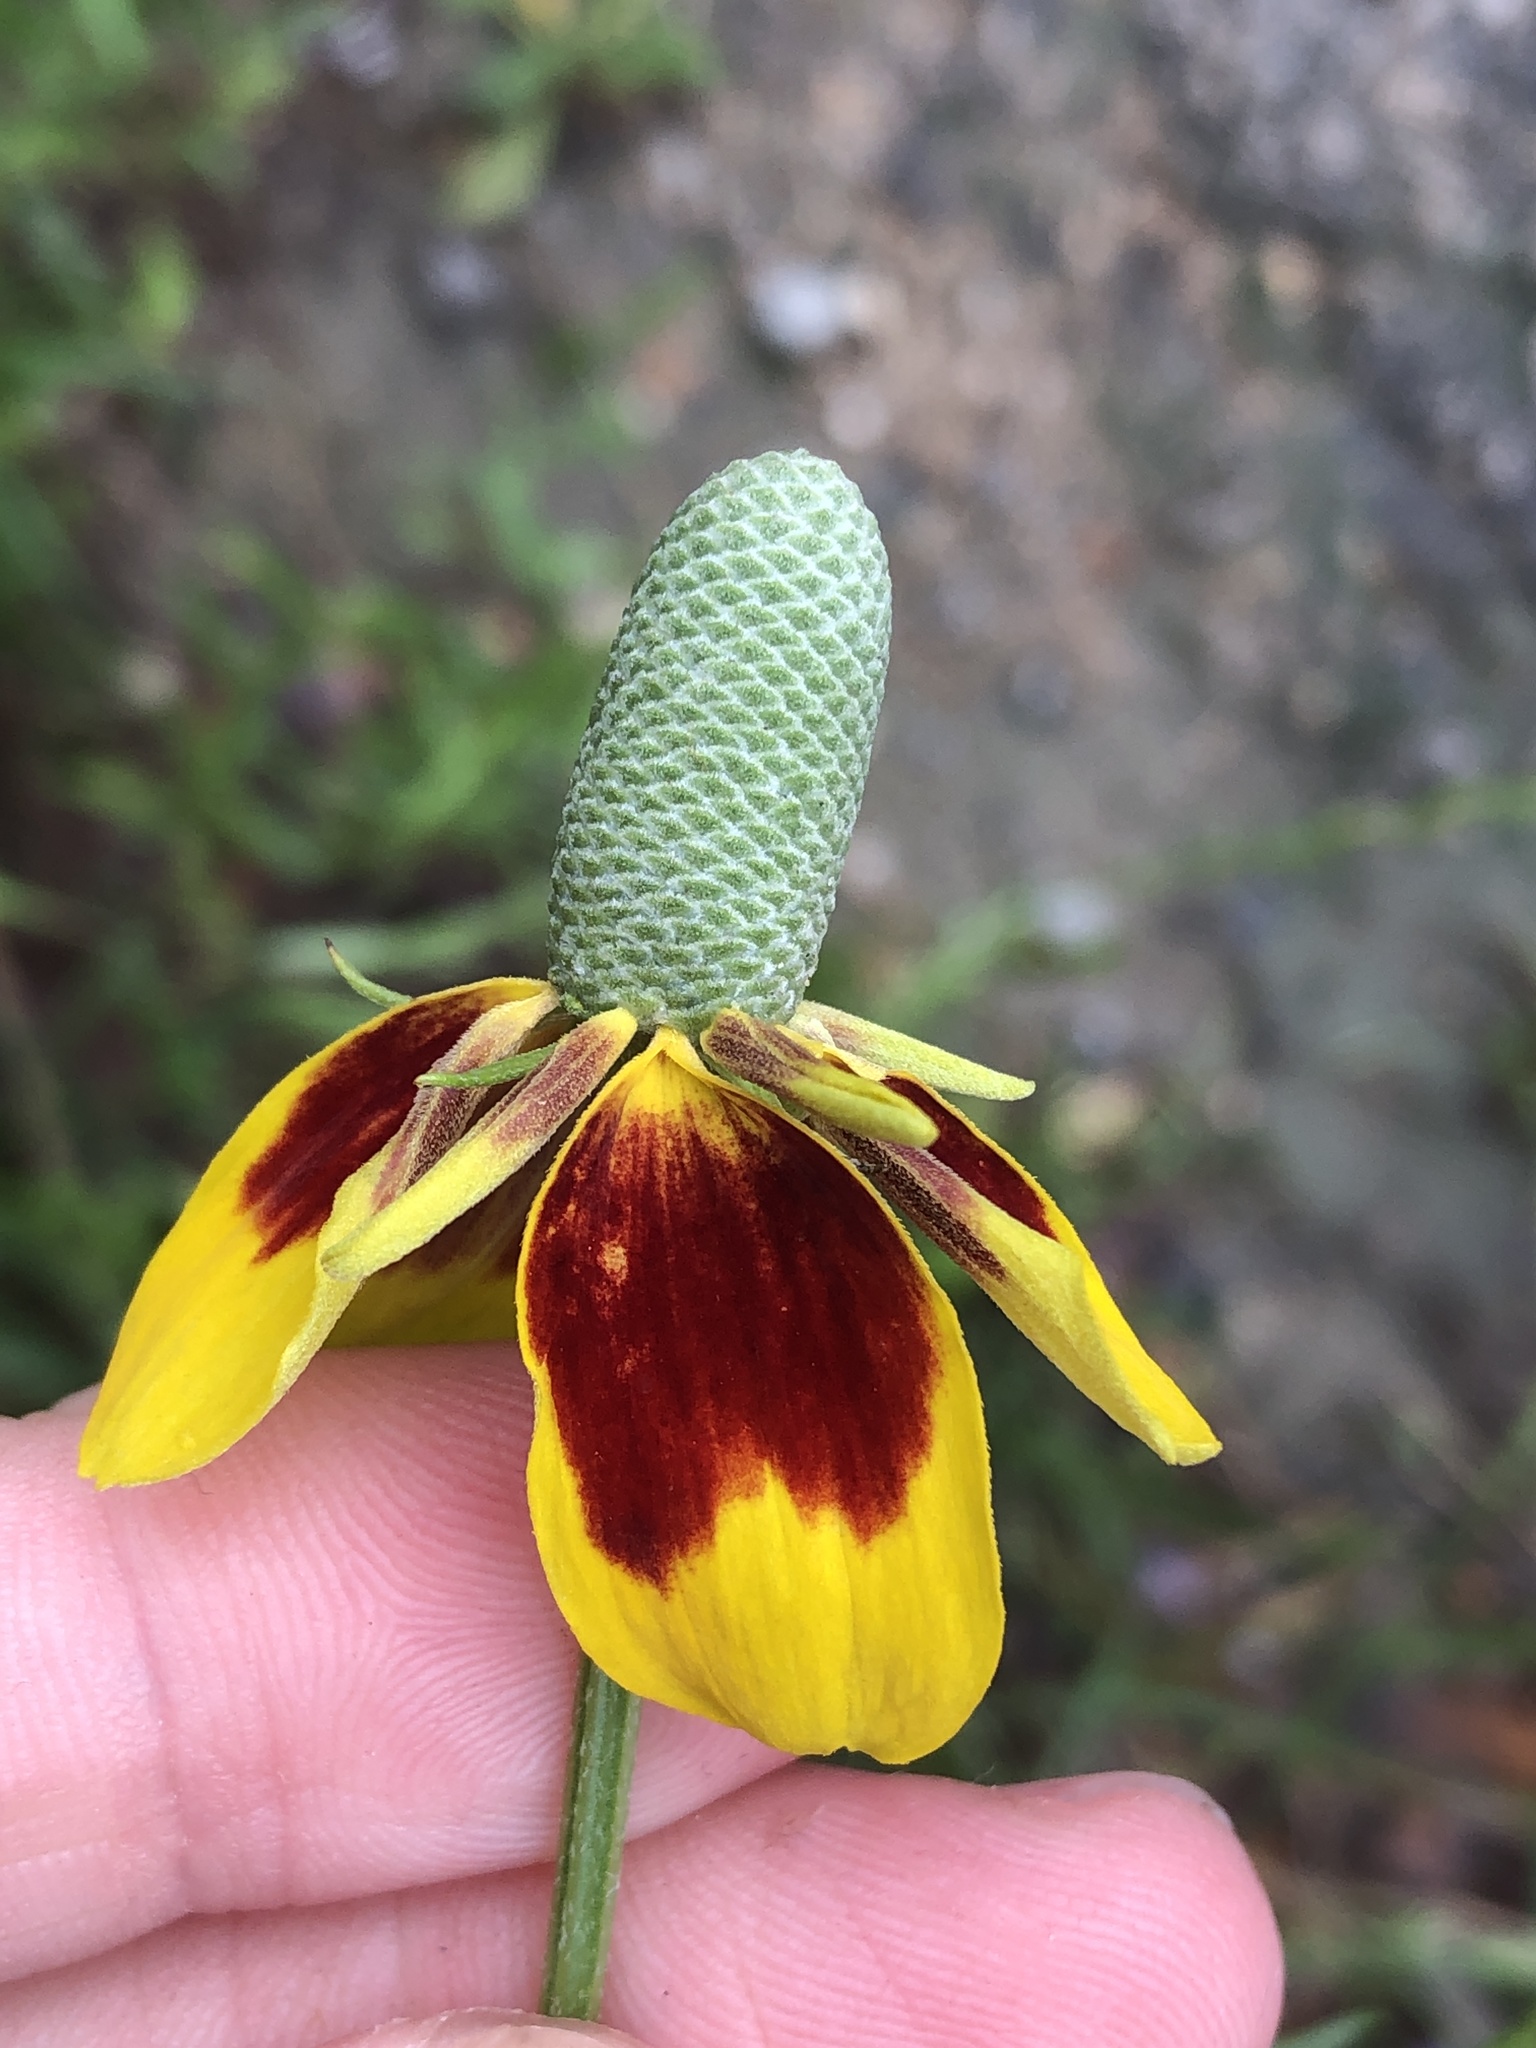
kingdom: Plantae
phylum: Tracheophyta
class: Magnoliopsida
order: Asterales
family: Asteraceae
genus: Ratibida
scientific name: Ratibida columnifera
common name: Prairie coneflower
